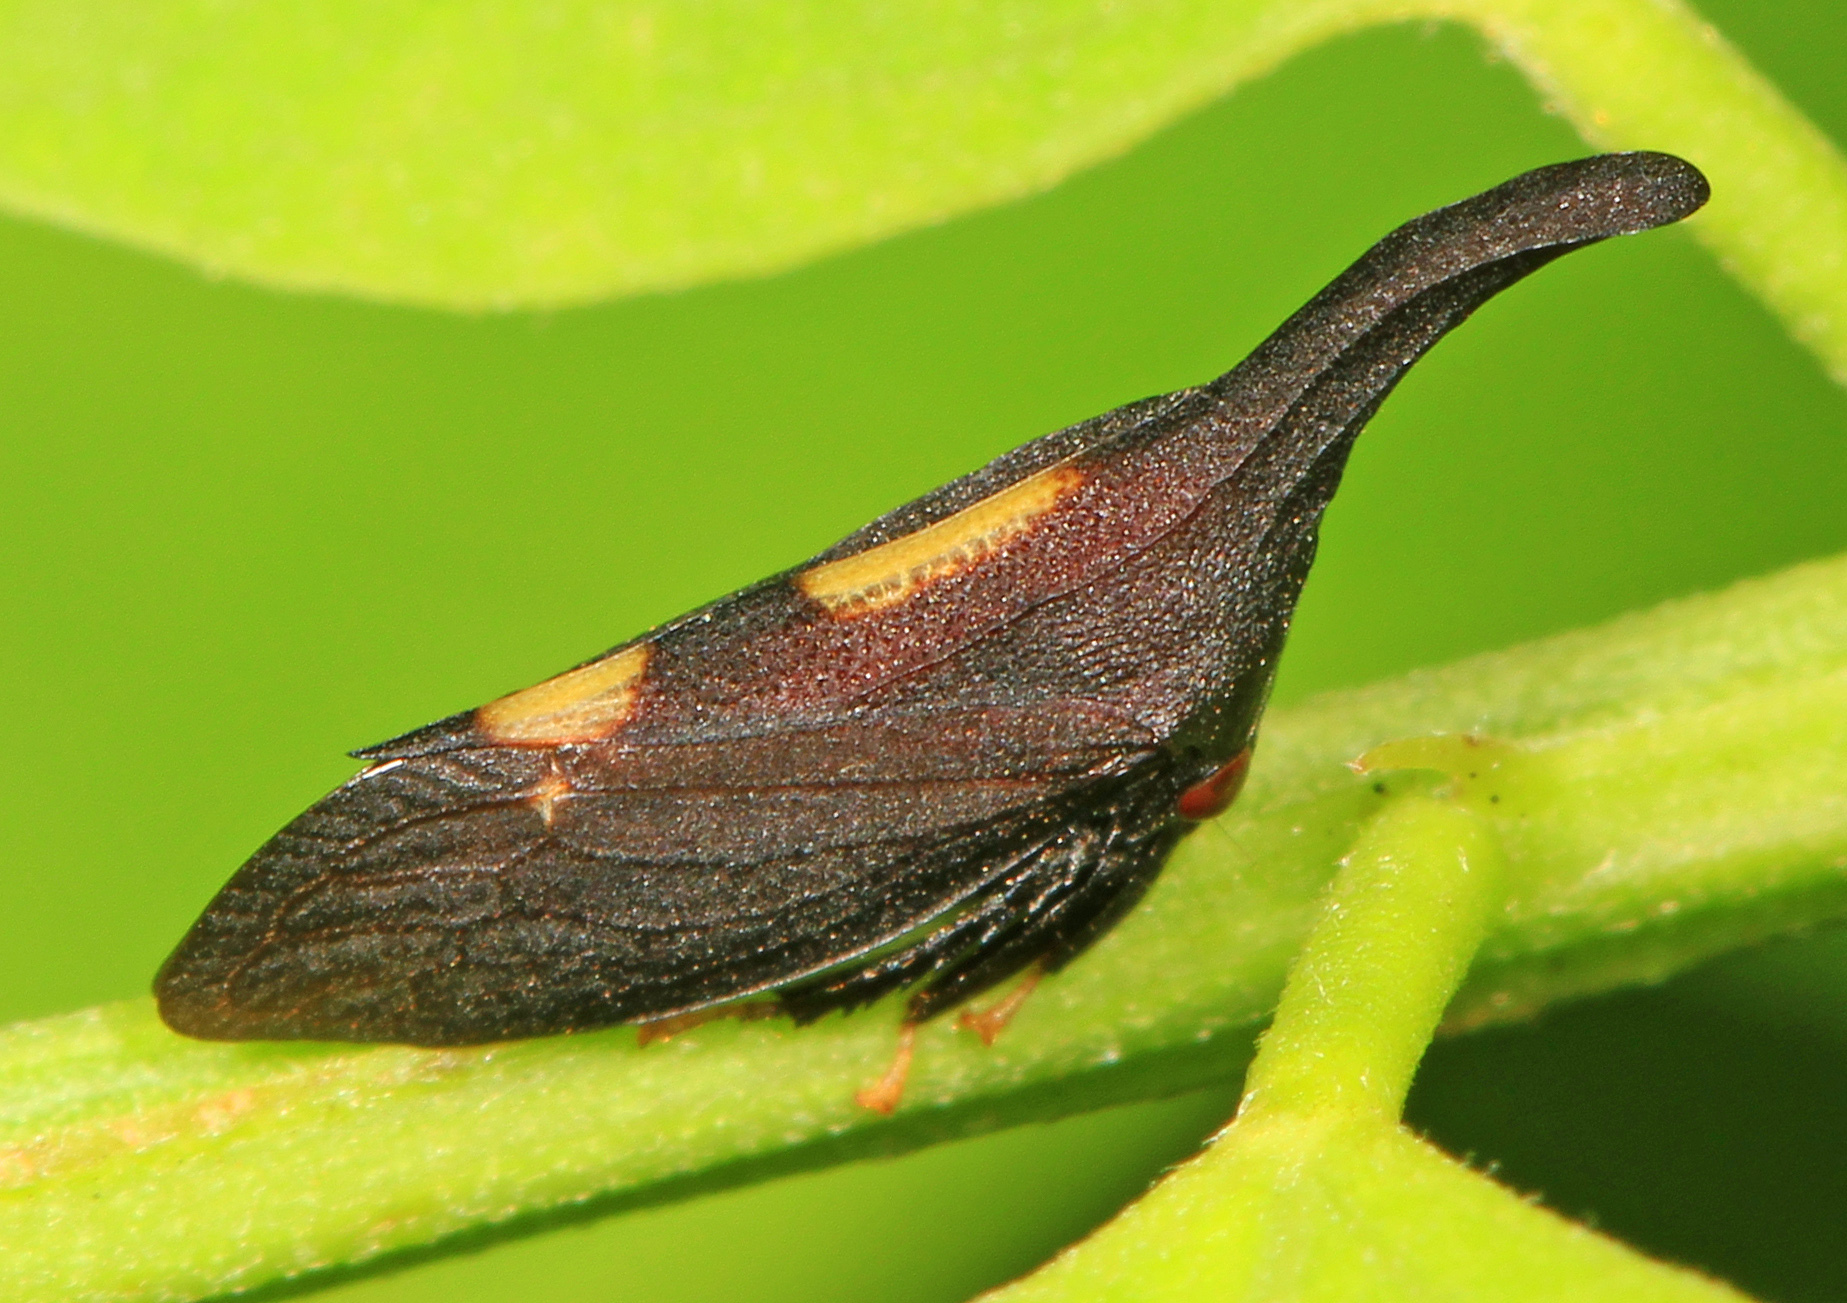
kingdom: Animalia
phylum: Arthropoda
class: Insecta
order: Hemiptera
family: Membracidae
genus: Enchenopa
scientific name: Enchenopa
